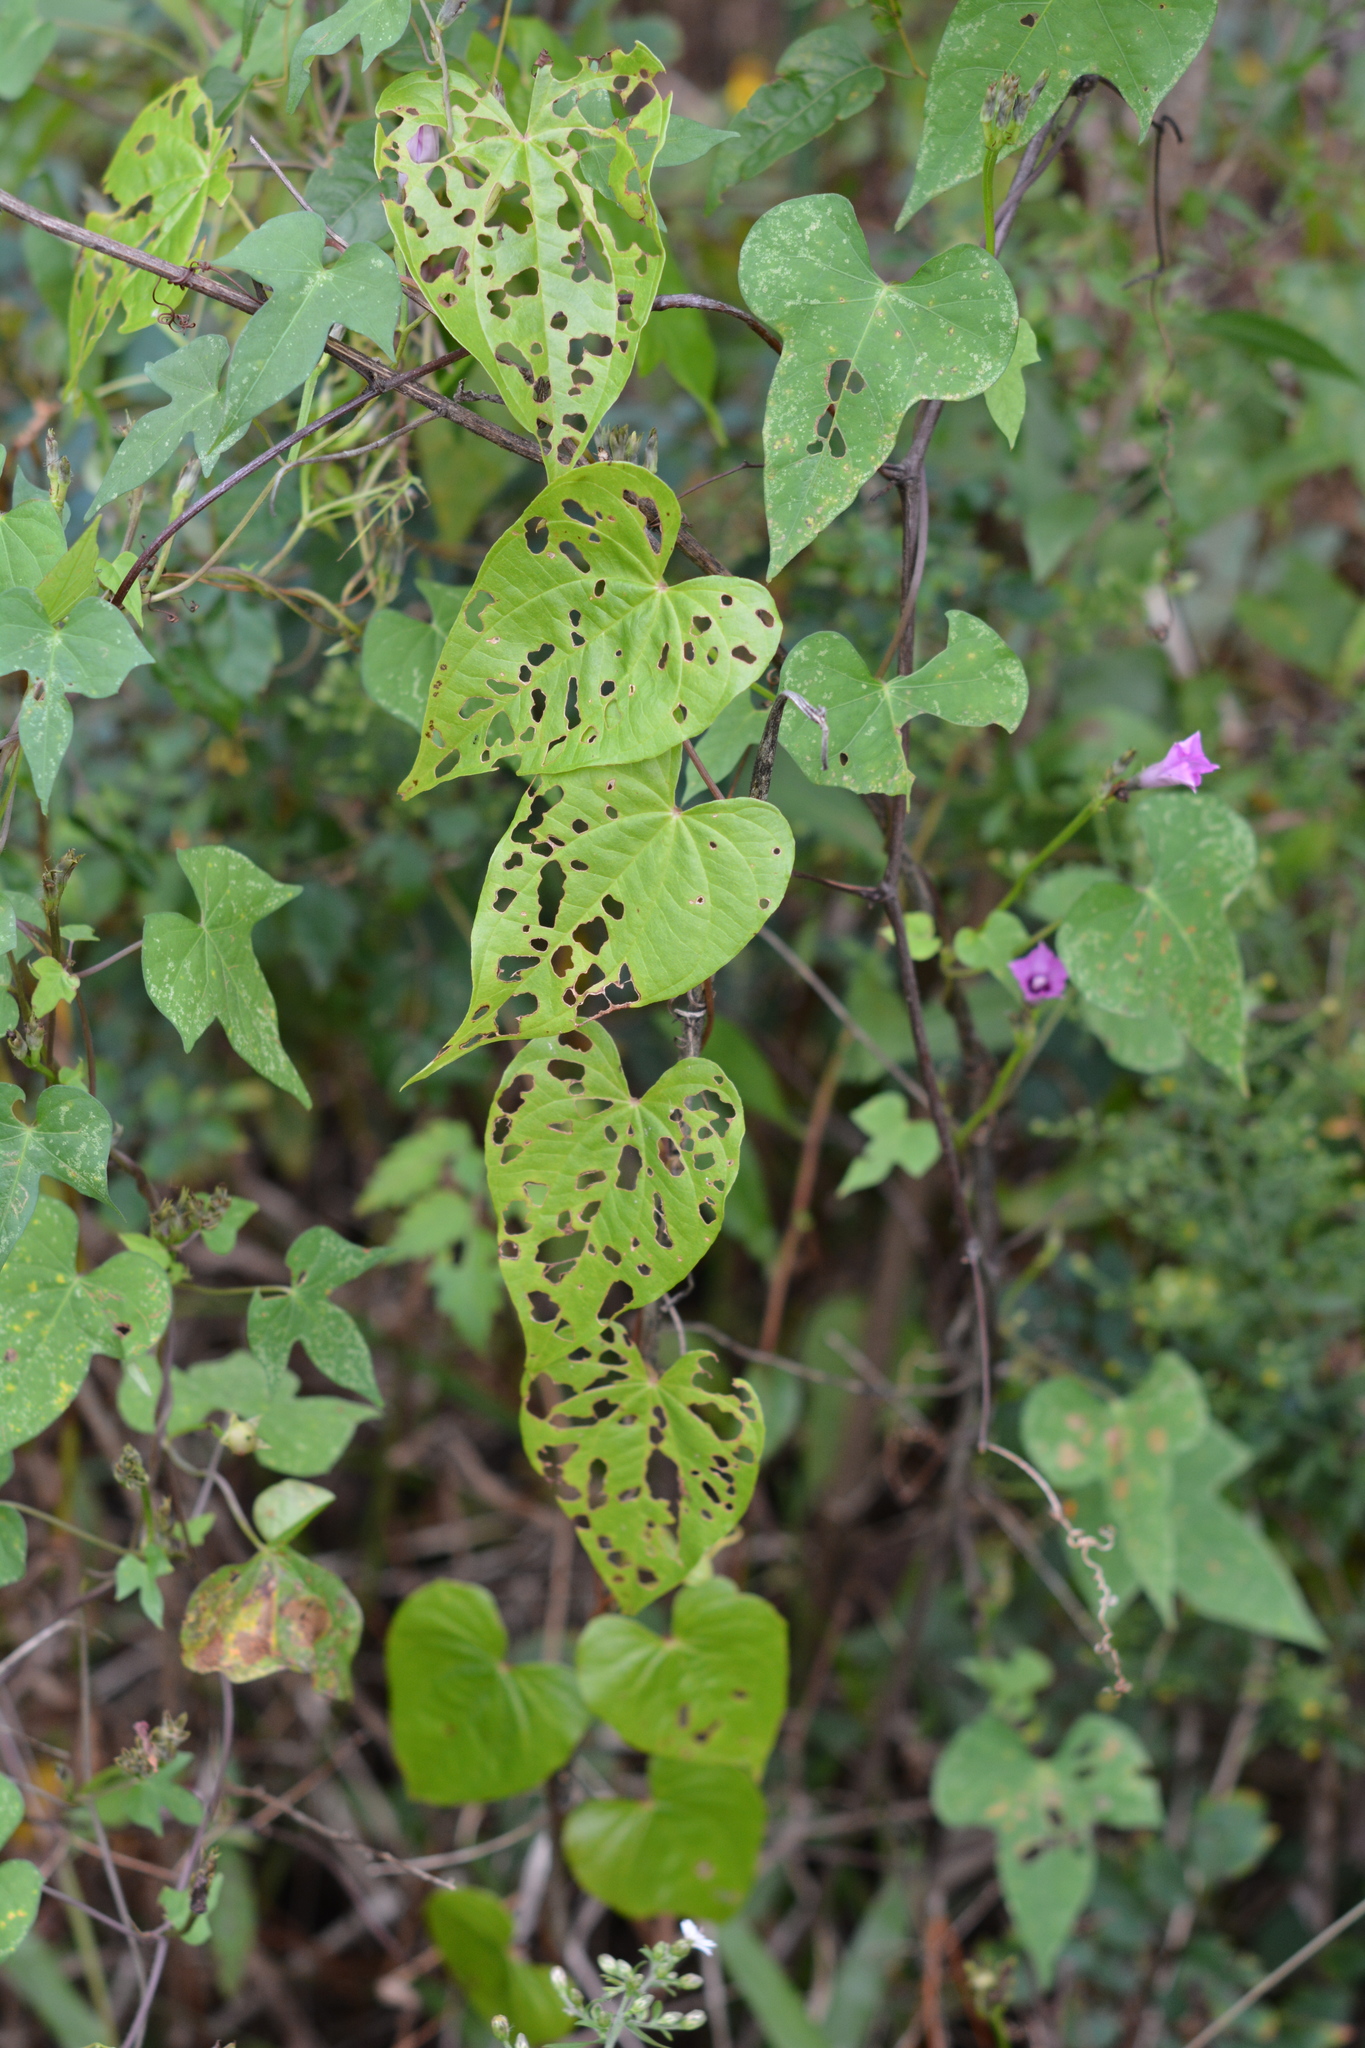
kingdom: Plantae
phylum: Tracheophyta
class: Liliopsida
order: Dioscoreales
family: Dioscoreaceae
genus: Dioscorea
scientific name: Dioscorea bulbifera
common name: Air yam
